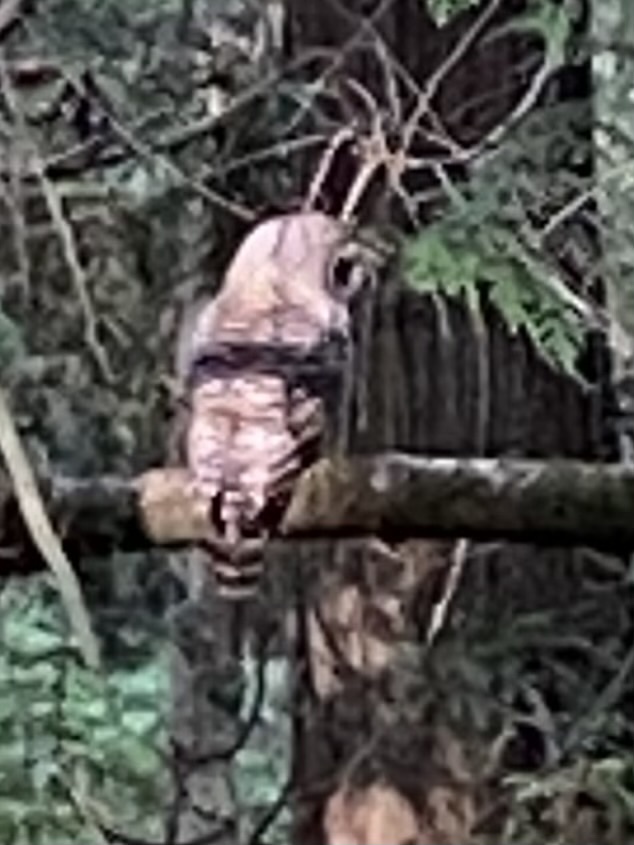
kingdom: Animalia
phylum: Chordata
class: Aves
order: Strigiformes
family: Strigidae
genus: Strix
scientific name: Strix varia
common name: Barred owl
